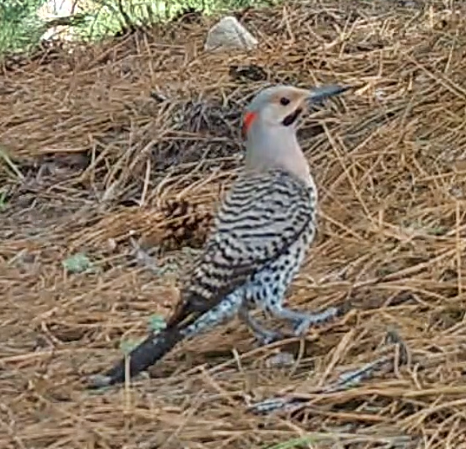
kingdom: Animalia
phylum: Chordata
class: Aves
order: Piciformes
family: Picidae
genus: Colaptes
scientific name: Colaptes auratus
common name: Northern flicker
